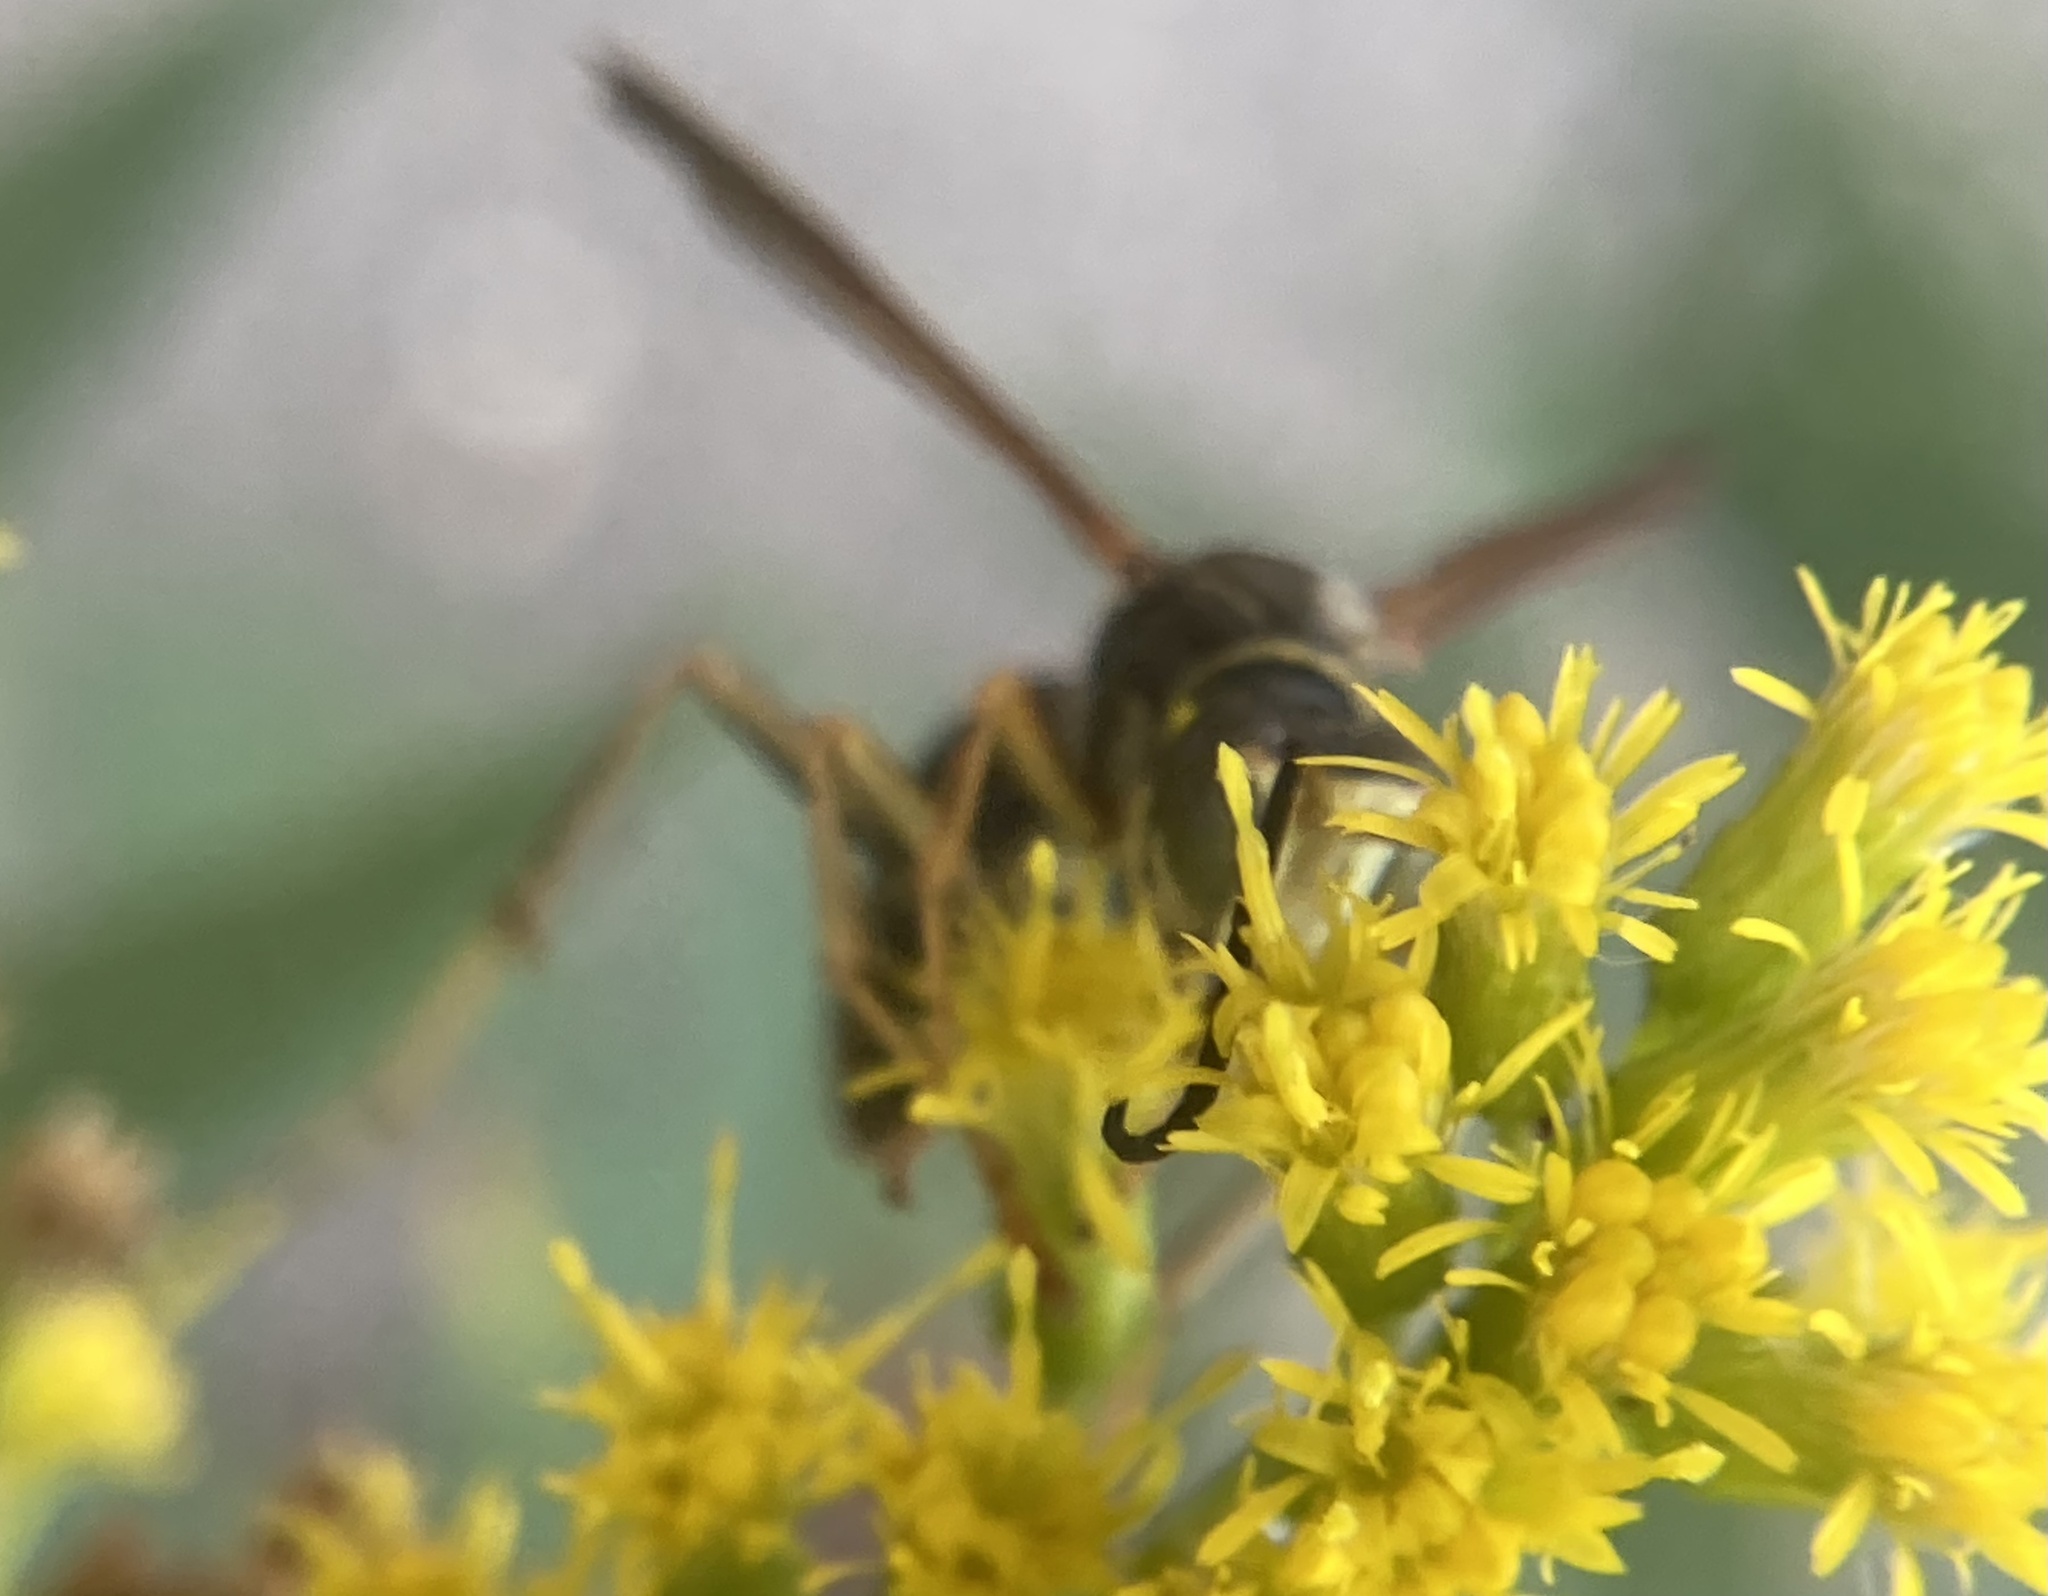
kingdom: Animalia
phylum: Arthropoda
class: Insecta
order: Hymenoptera
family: Eumenidae
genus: Polistes
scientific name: Polistes fuscatus
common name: Dark paper wasp
